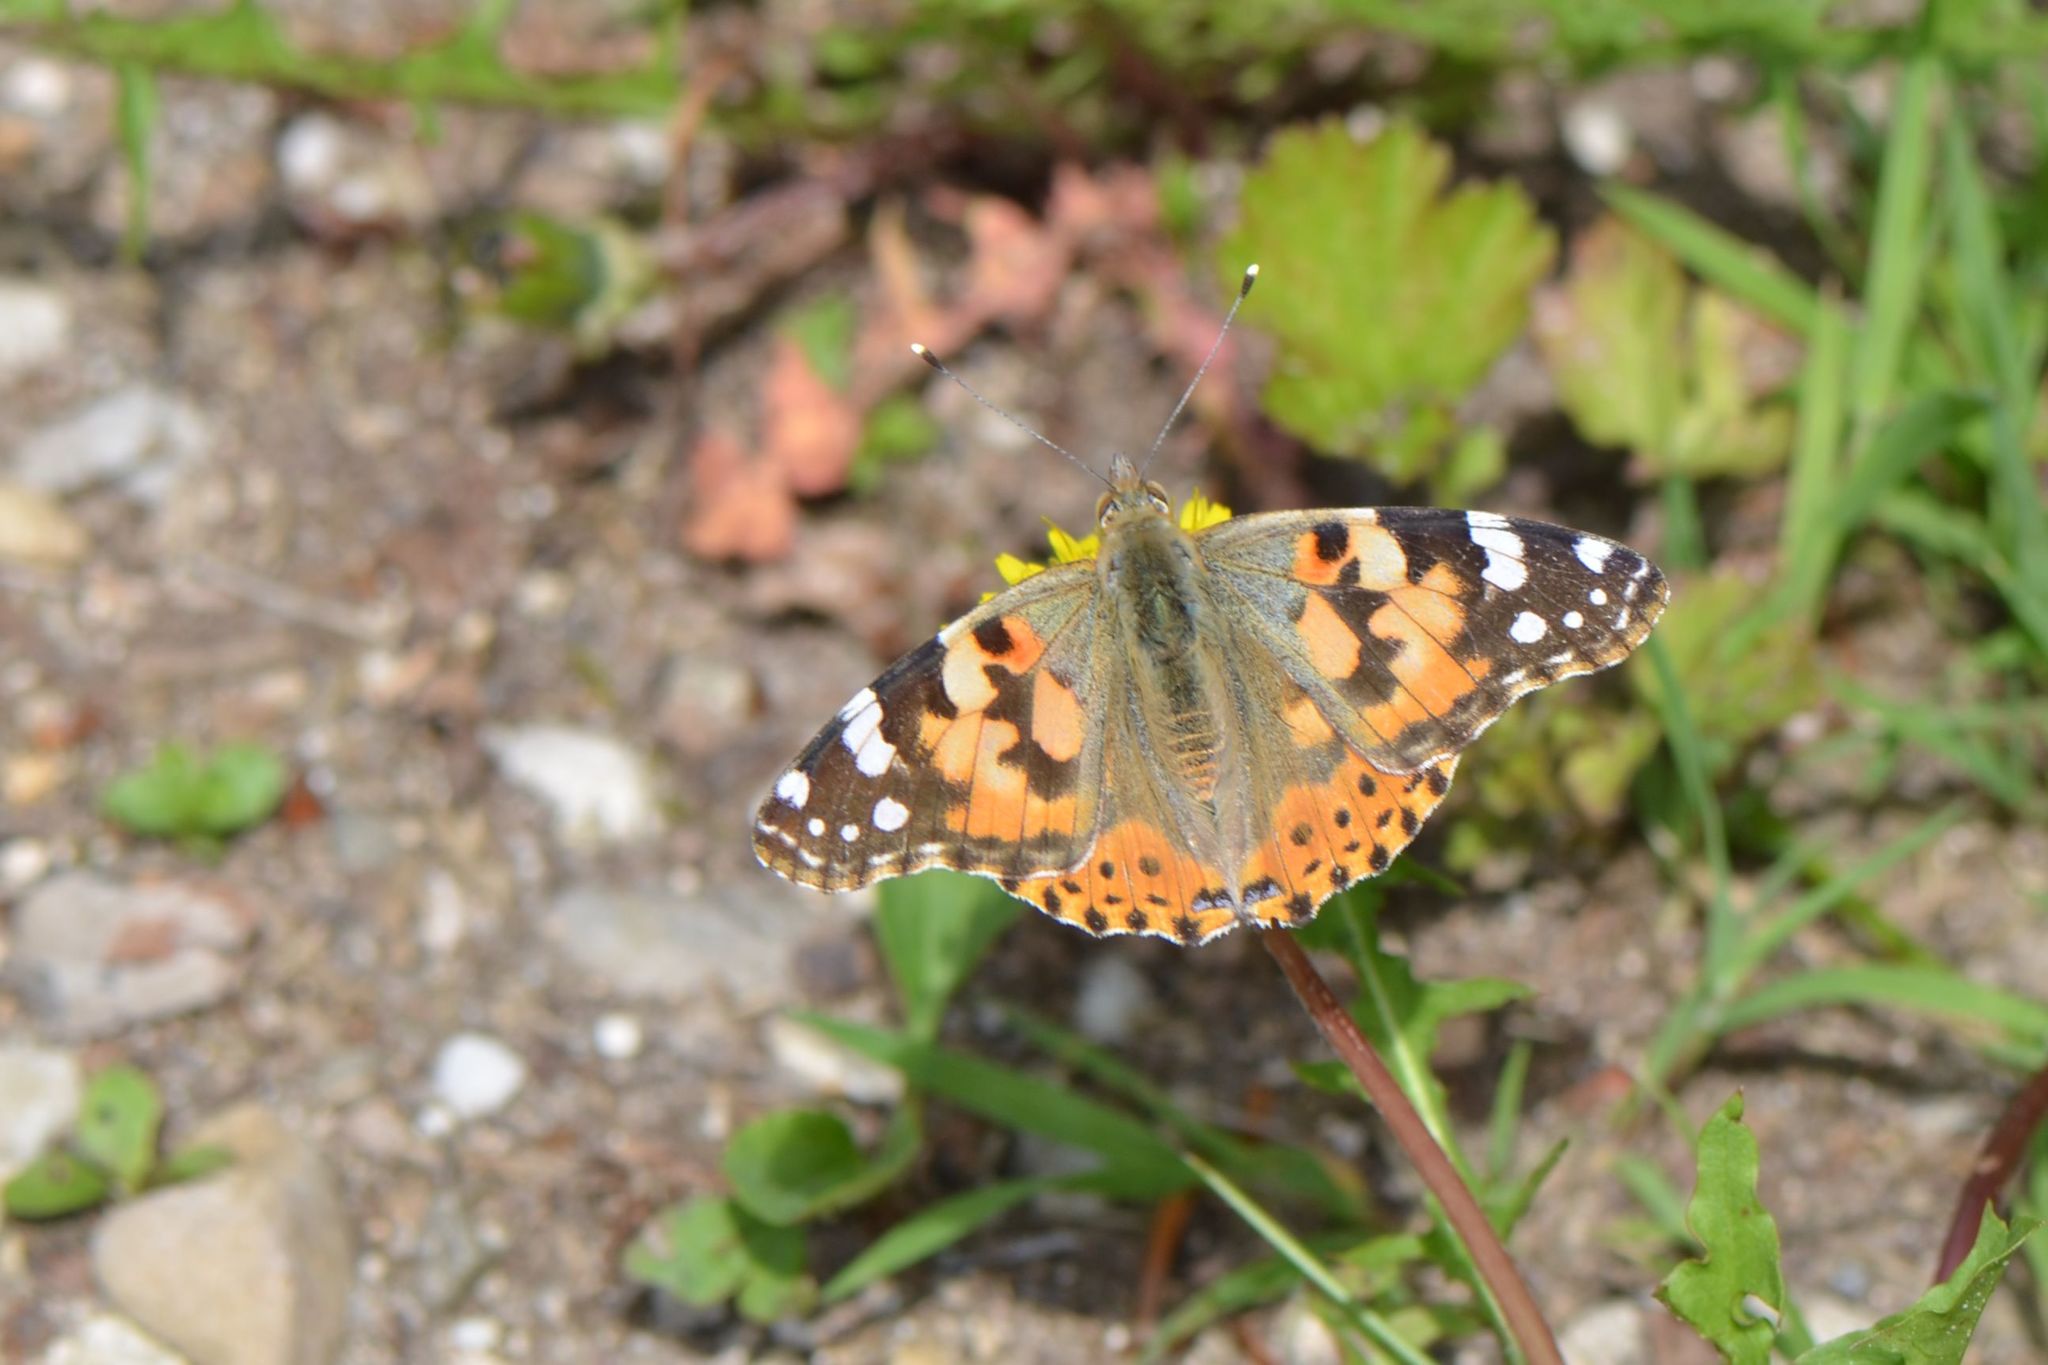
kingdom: Animalia
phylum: Arthropoda
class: Insecta
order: Lepidoptera
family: Nymphalidae
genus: Vanessa
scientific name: Vanessa cardui
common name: Painted lady
